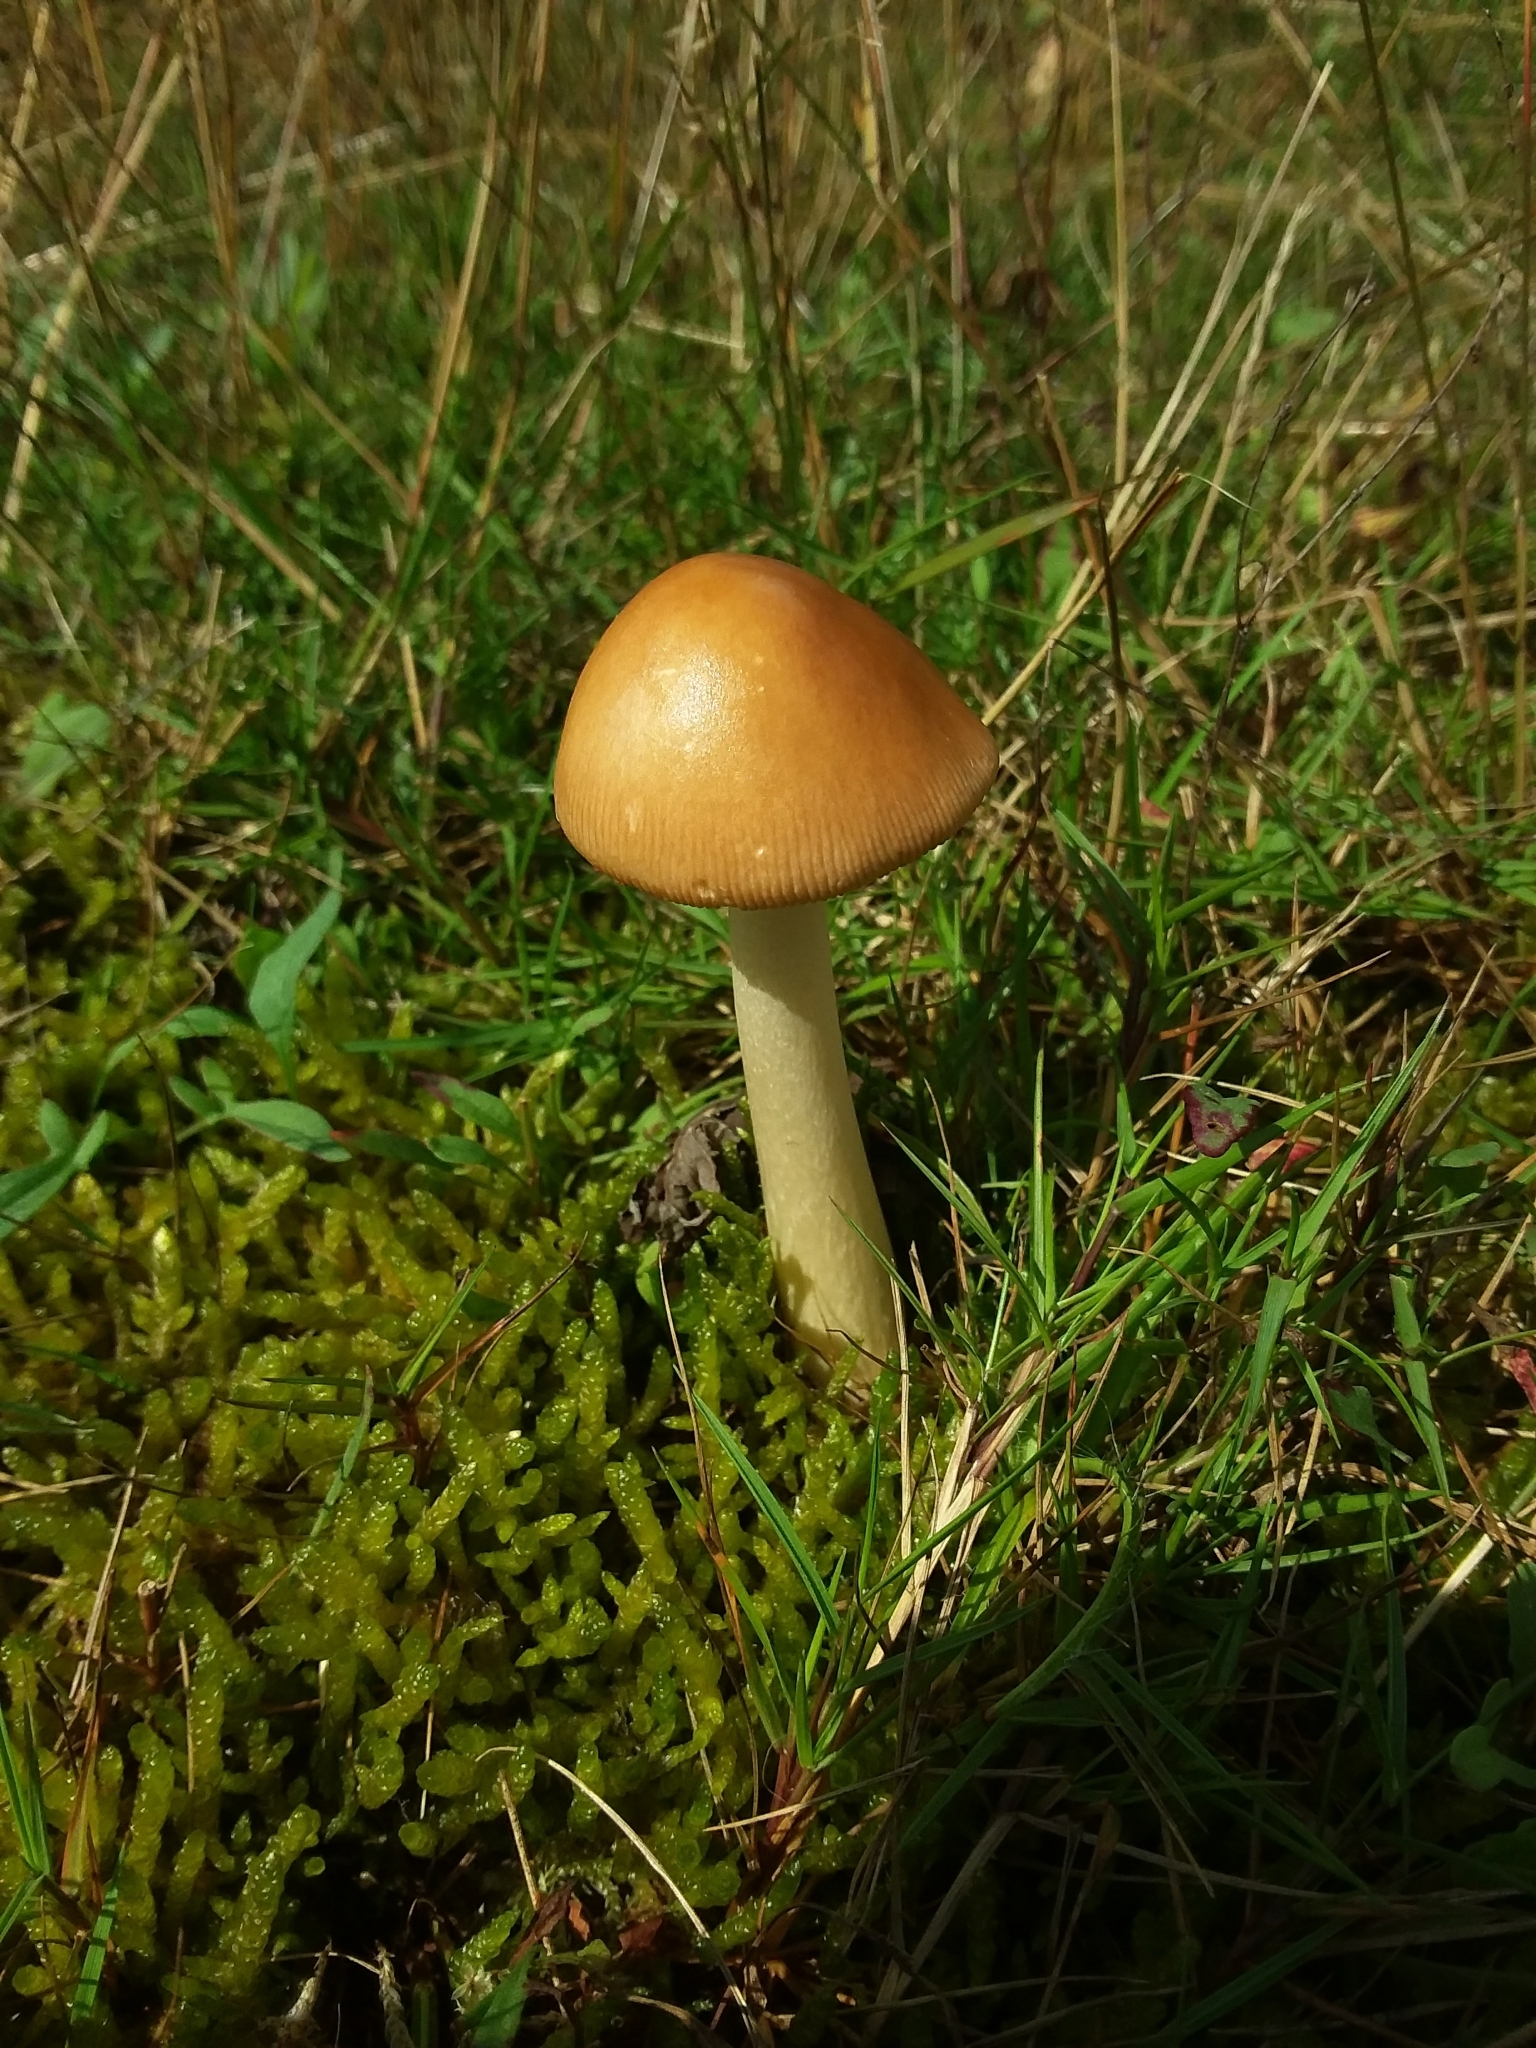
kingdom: Fungi
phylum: Basidiomycota
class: Agaricomycetes
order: Agaricales
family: Amanitaceae
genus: Amanita
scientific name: Amanita fulva
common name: Tawny grisette
